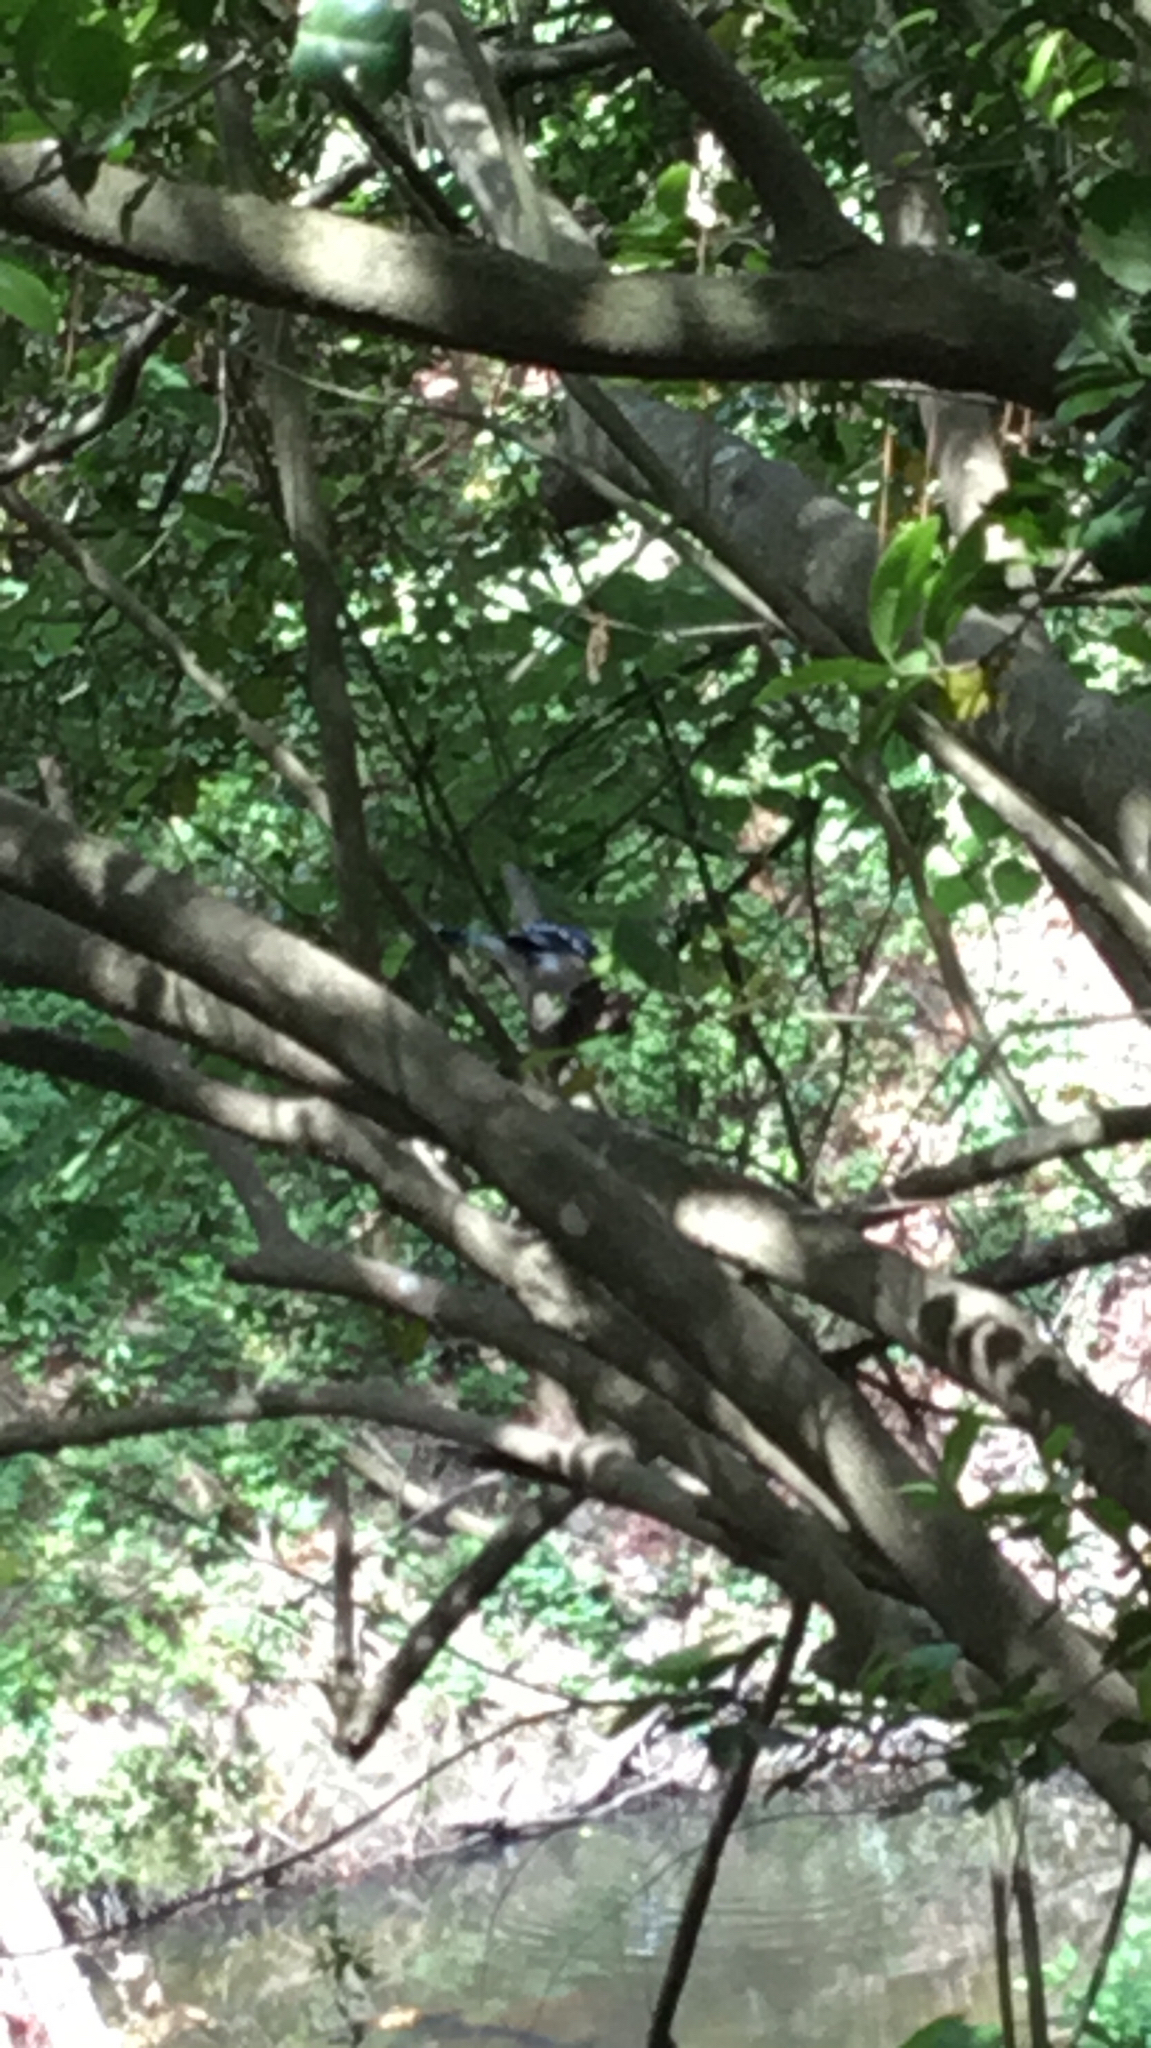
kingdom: Animalia
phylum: Chordata
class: Aves
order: Passeriformes
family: Corvidae
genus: Cyanocitta
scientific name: Cyanocitta cristata
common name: Blue jay
